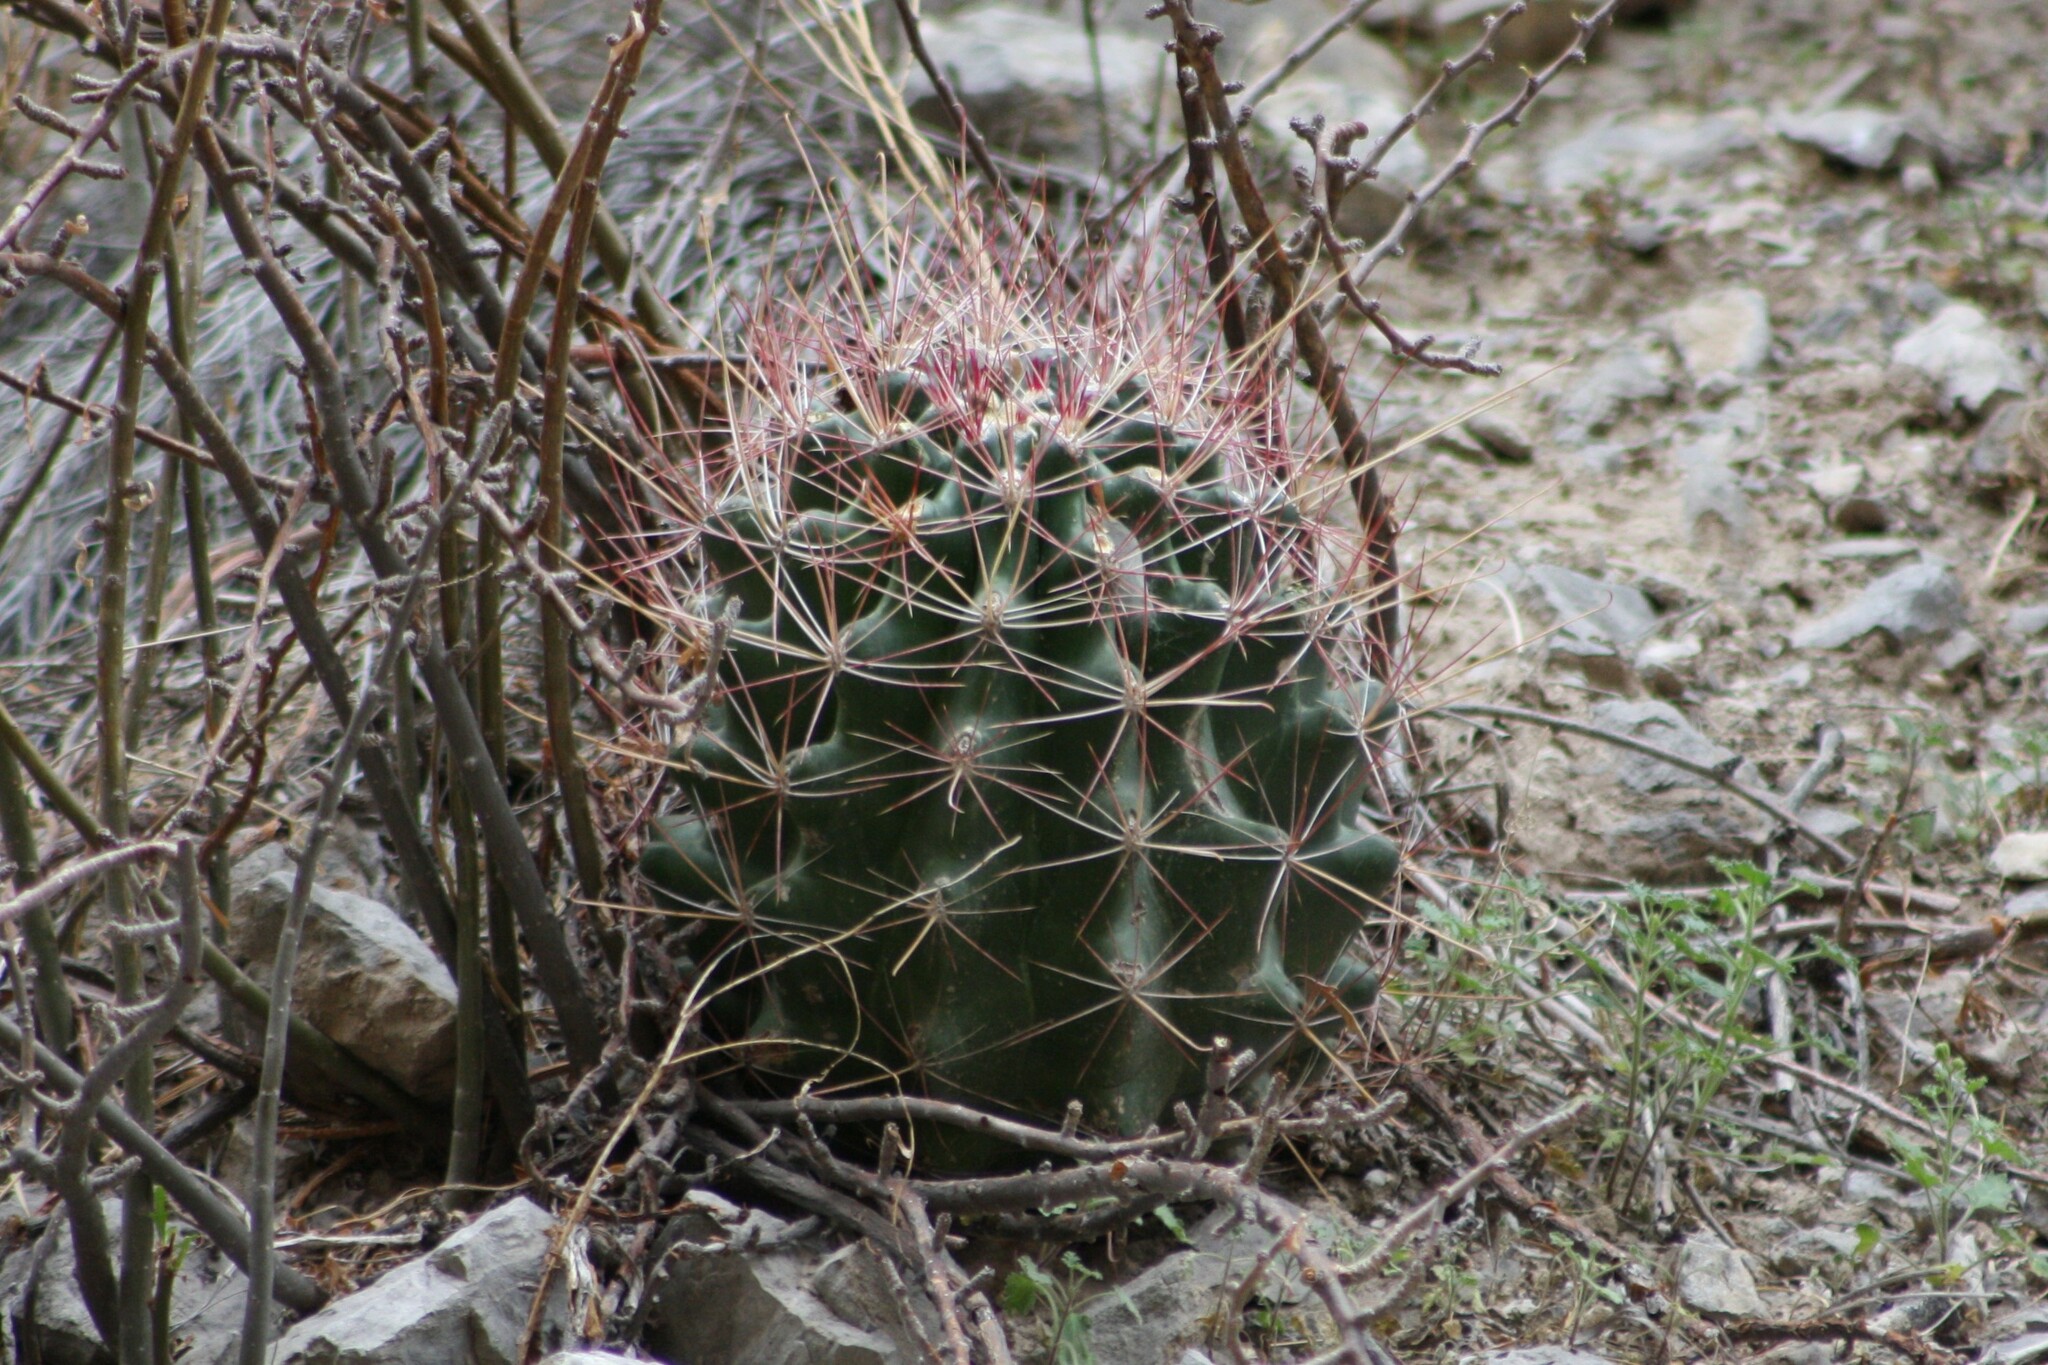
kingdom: Plantae
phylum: Tracheophyta
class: Magnoliopsida
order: Caryophyllales
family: Cactaceae
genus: Bisnaga
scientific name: Bisnaga hamatacantha
